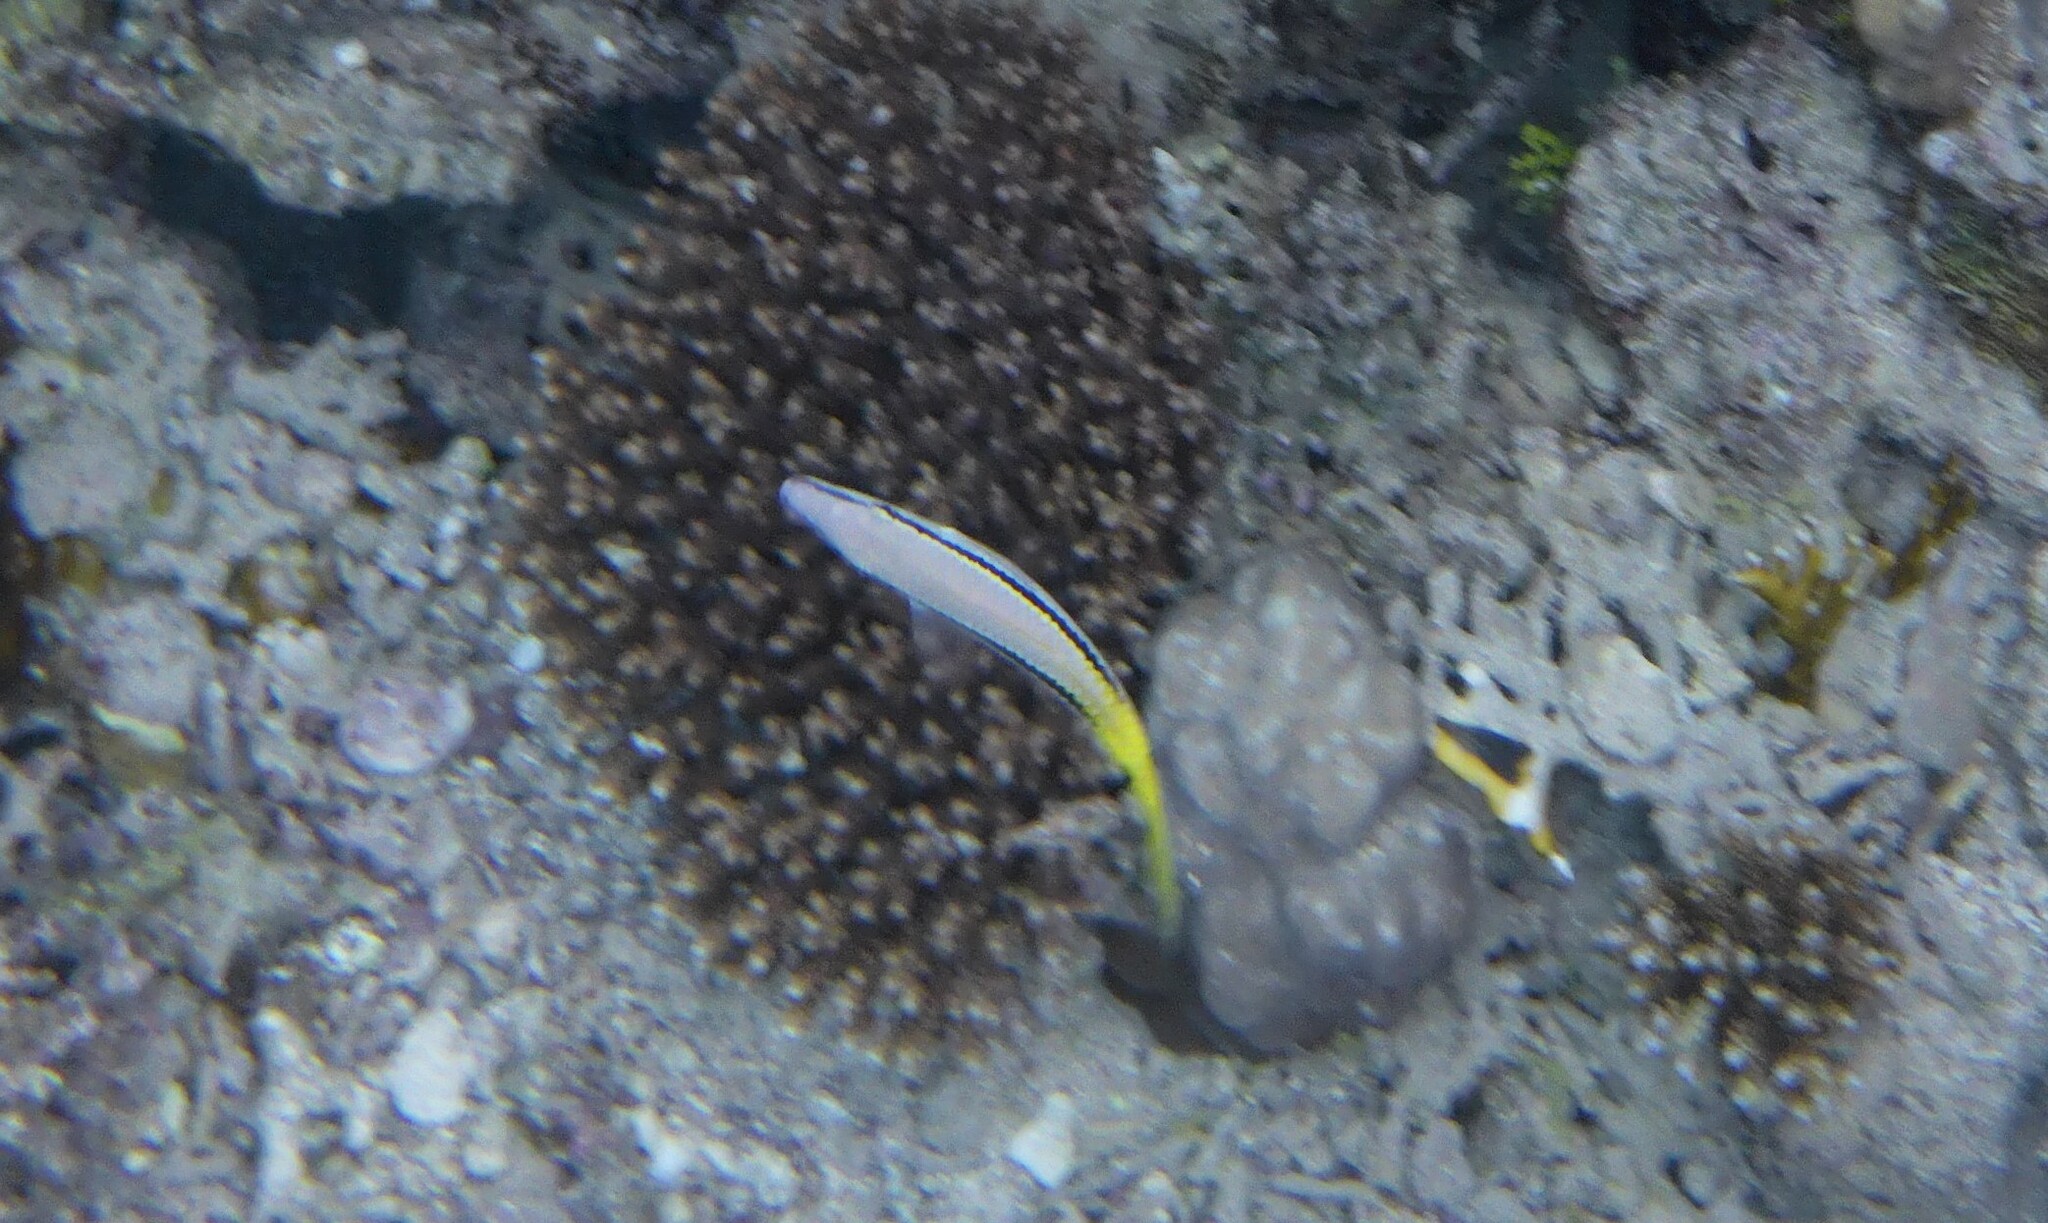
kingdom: Animalia
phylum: Chordata
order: Perciformes
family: Mullidae
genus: Parupeneus
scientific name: Parupeneus forsskali
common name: Red sea goatfish
